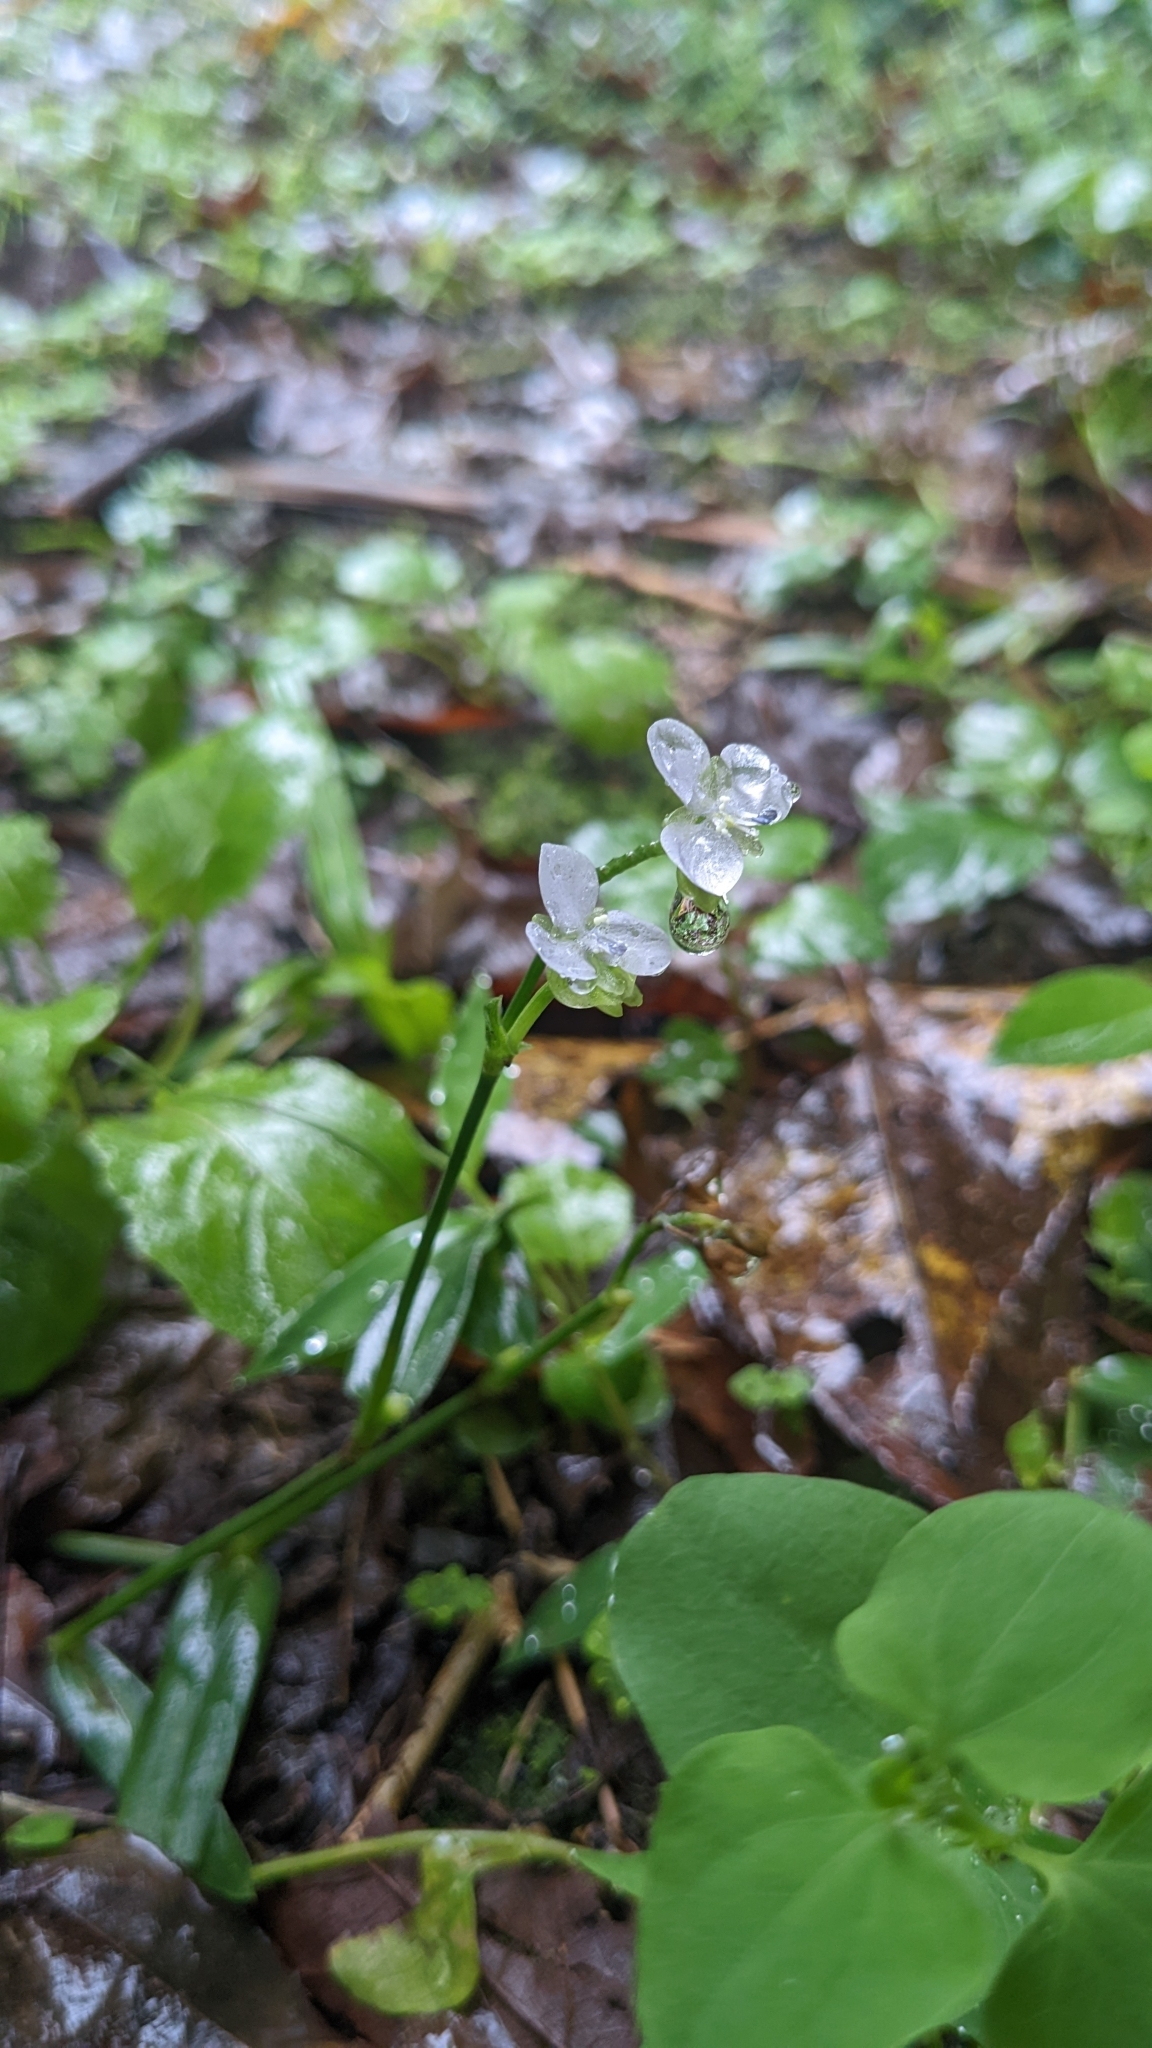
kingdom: Plantae
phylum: Tracheophyta
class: Liliopsida
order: Commelinales
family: Commelinaceae
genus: Murdannia
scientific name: Murdannia loriformis
